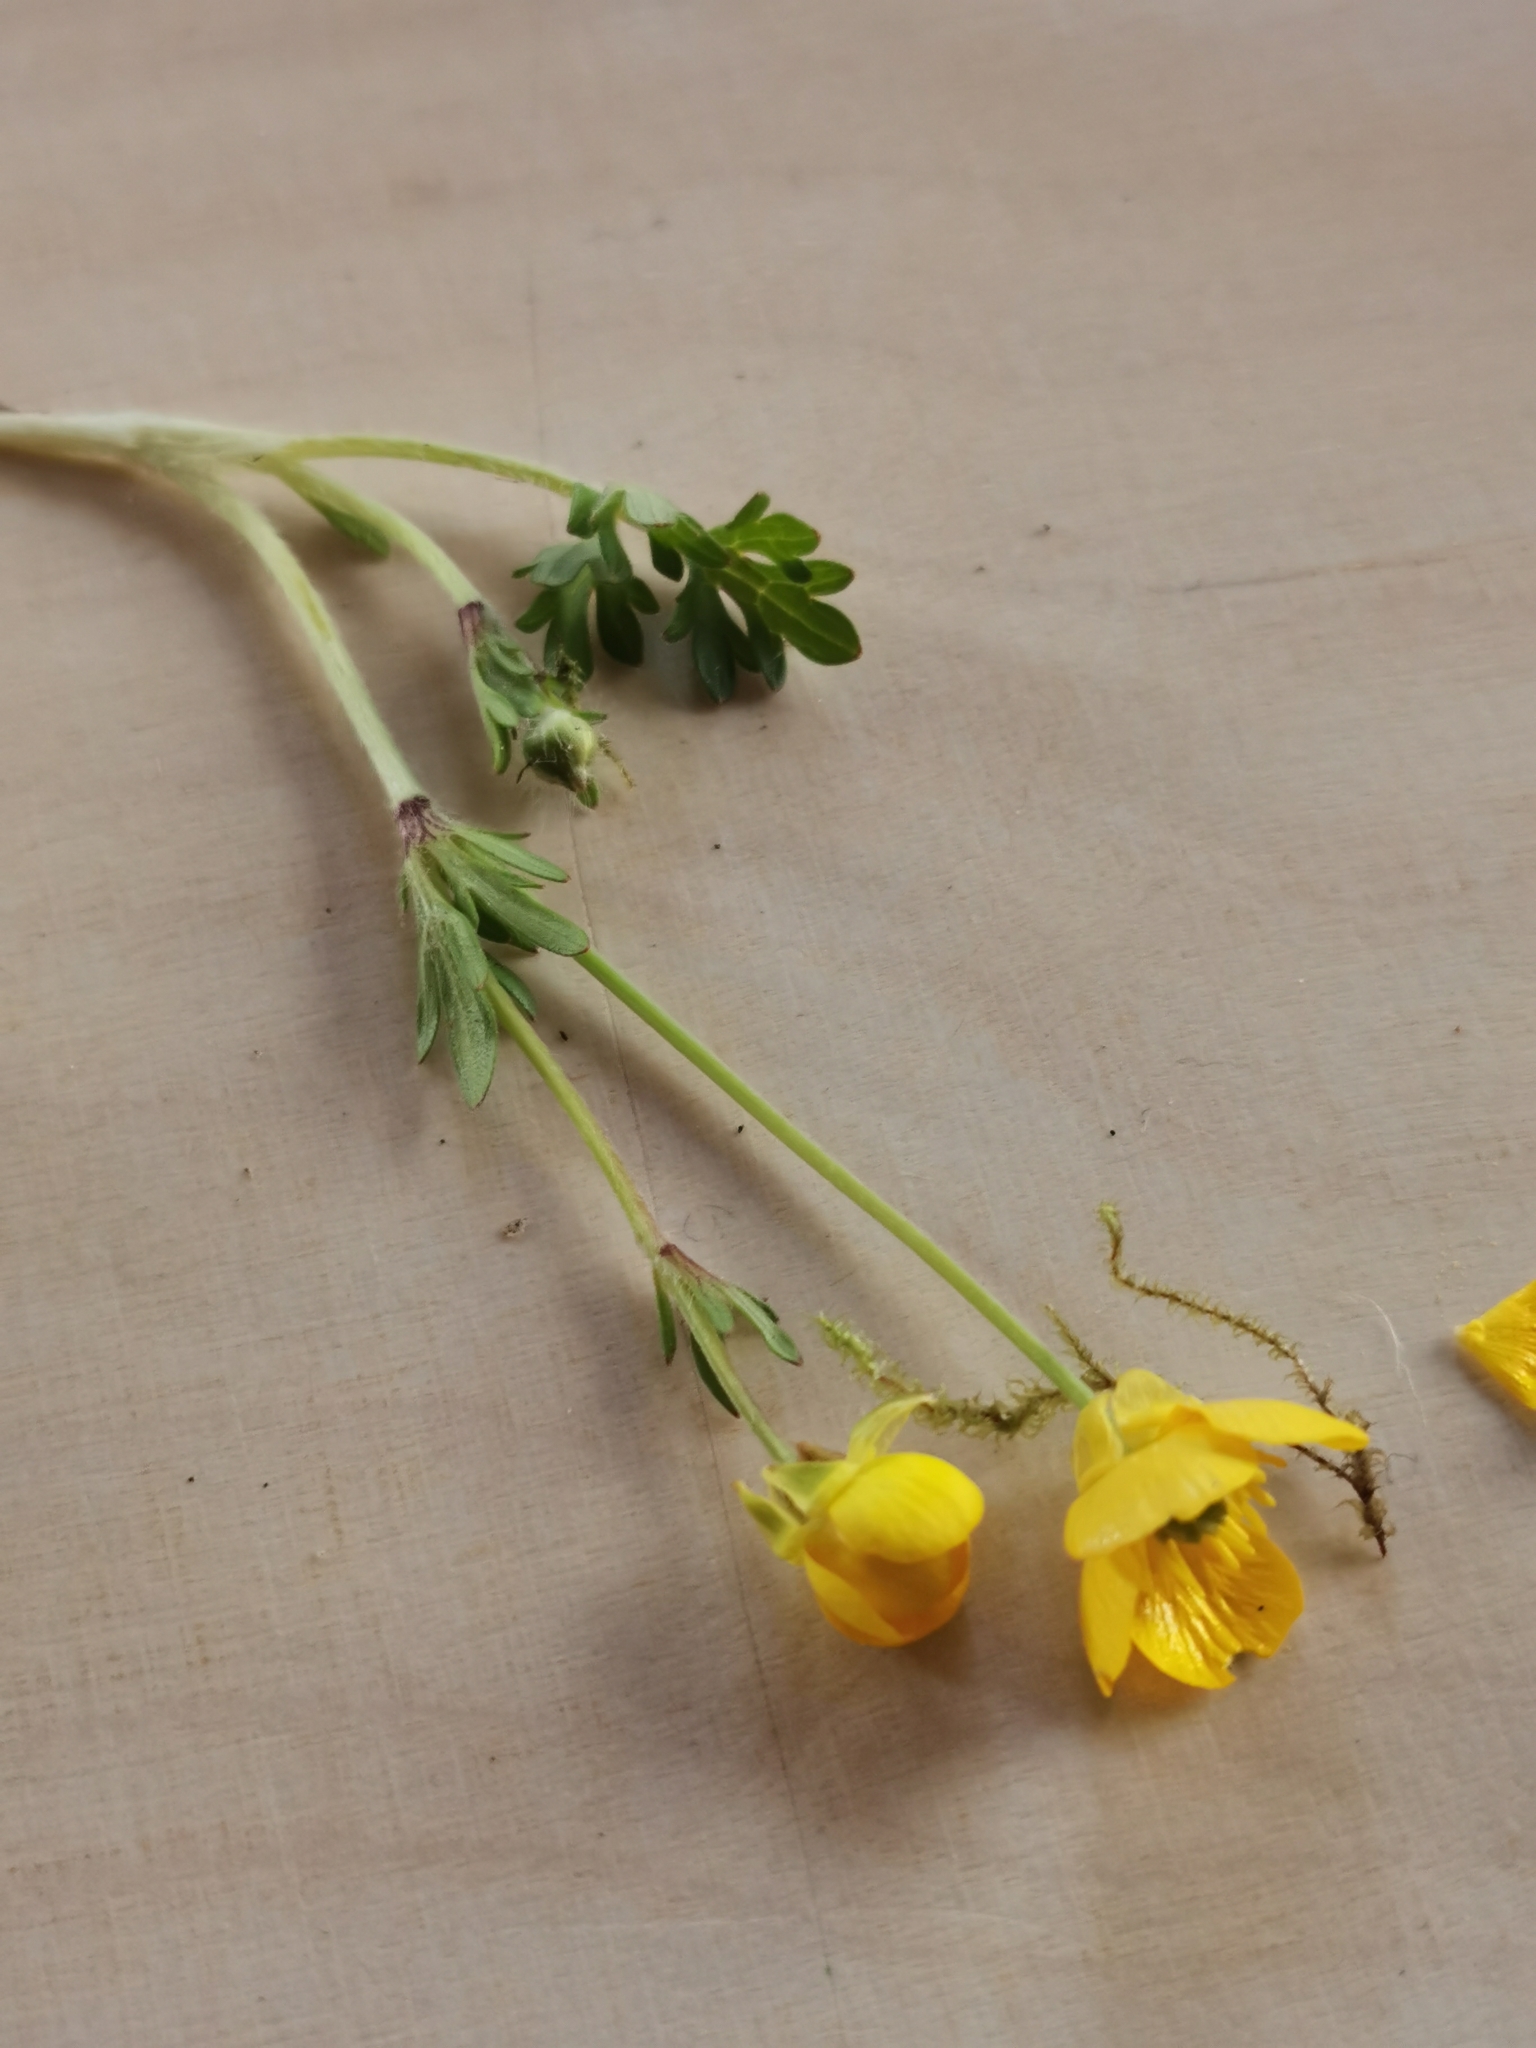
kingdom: Plantae
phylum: Tracheophyta
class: Magnoliopsida
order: Ranunculales
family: Ranunculaceae
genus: Ranunculus
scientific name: Ranunculus bulbosus
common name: Bulbous buttercup
